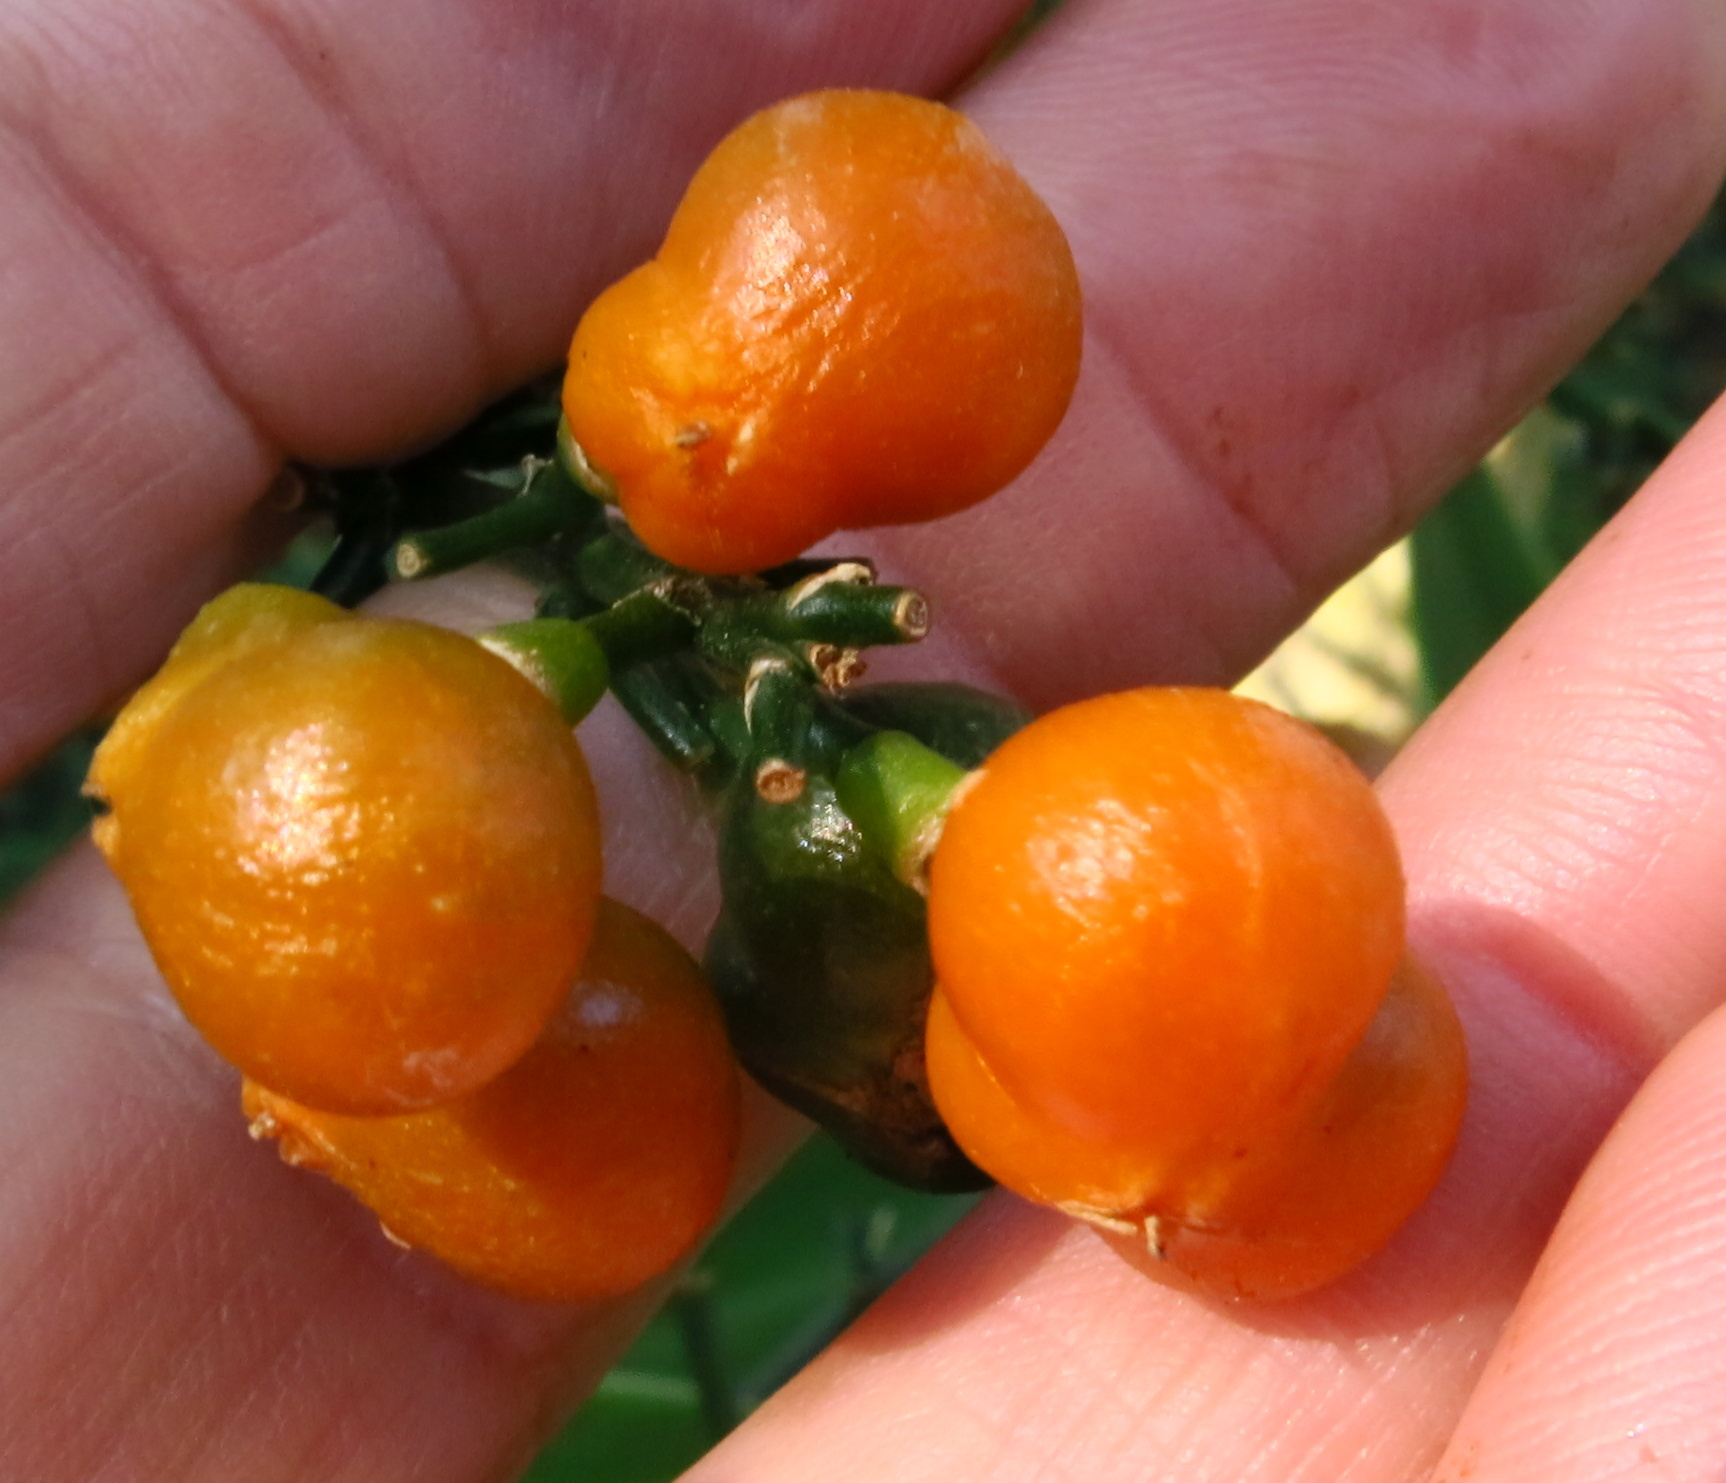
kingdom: Plantae
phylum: Tracheophyta
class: Liliopsida
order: Asparagales
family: Asparagaceae
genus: Dracaena
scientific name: Dracaena aletriformis
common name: Large-leaved dragon tree
